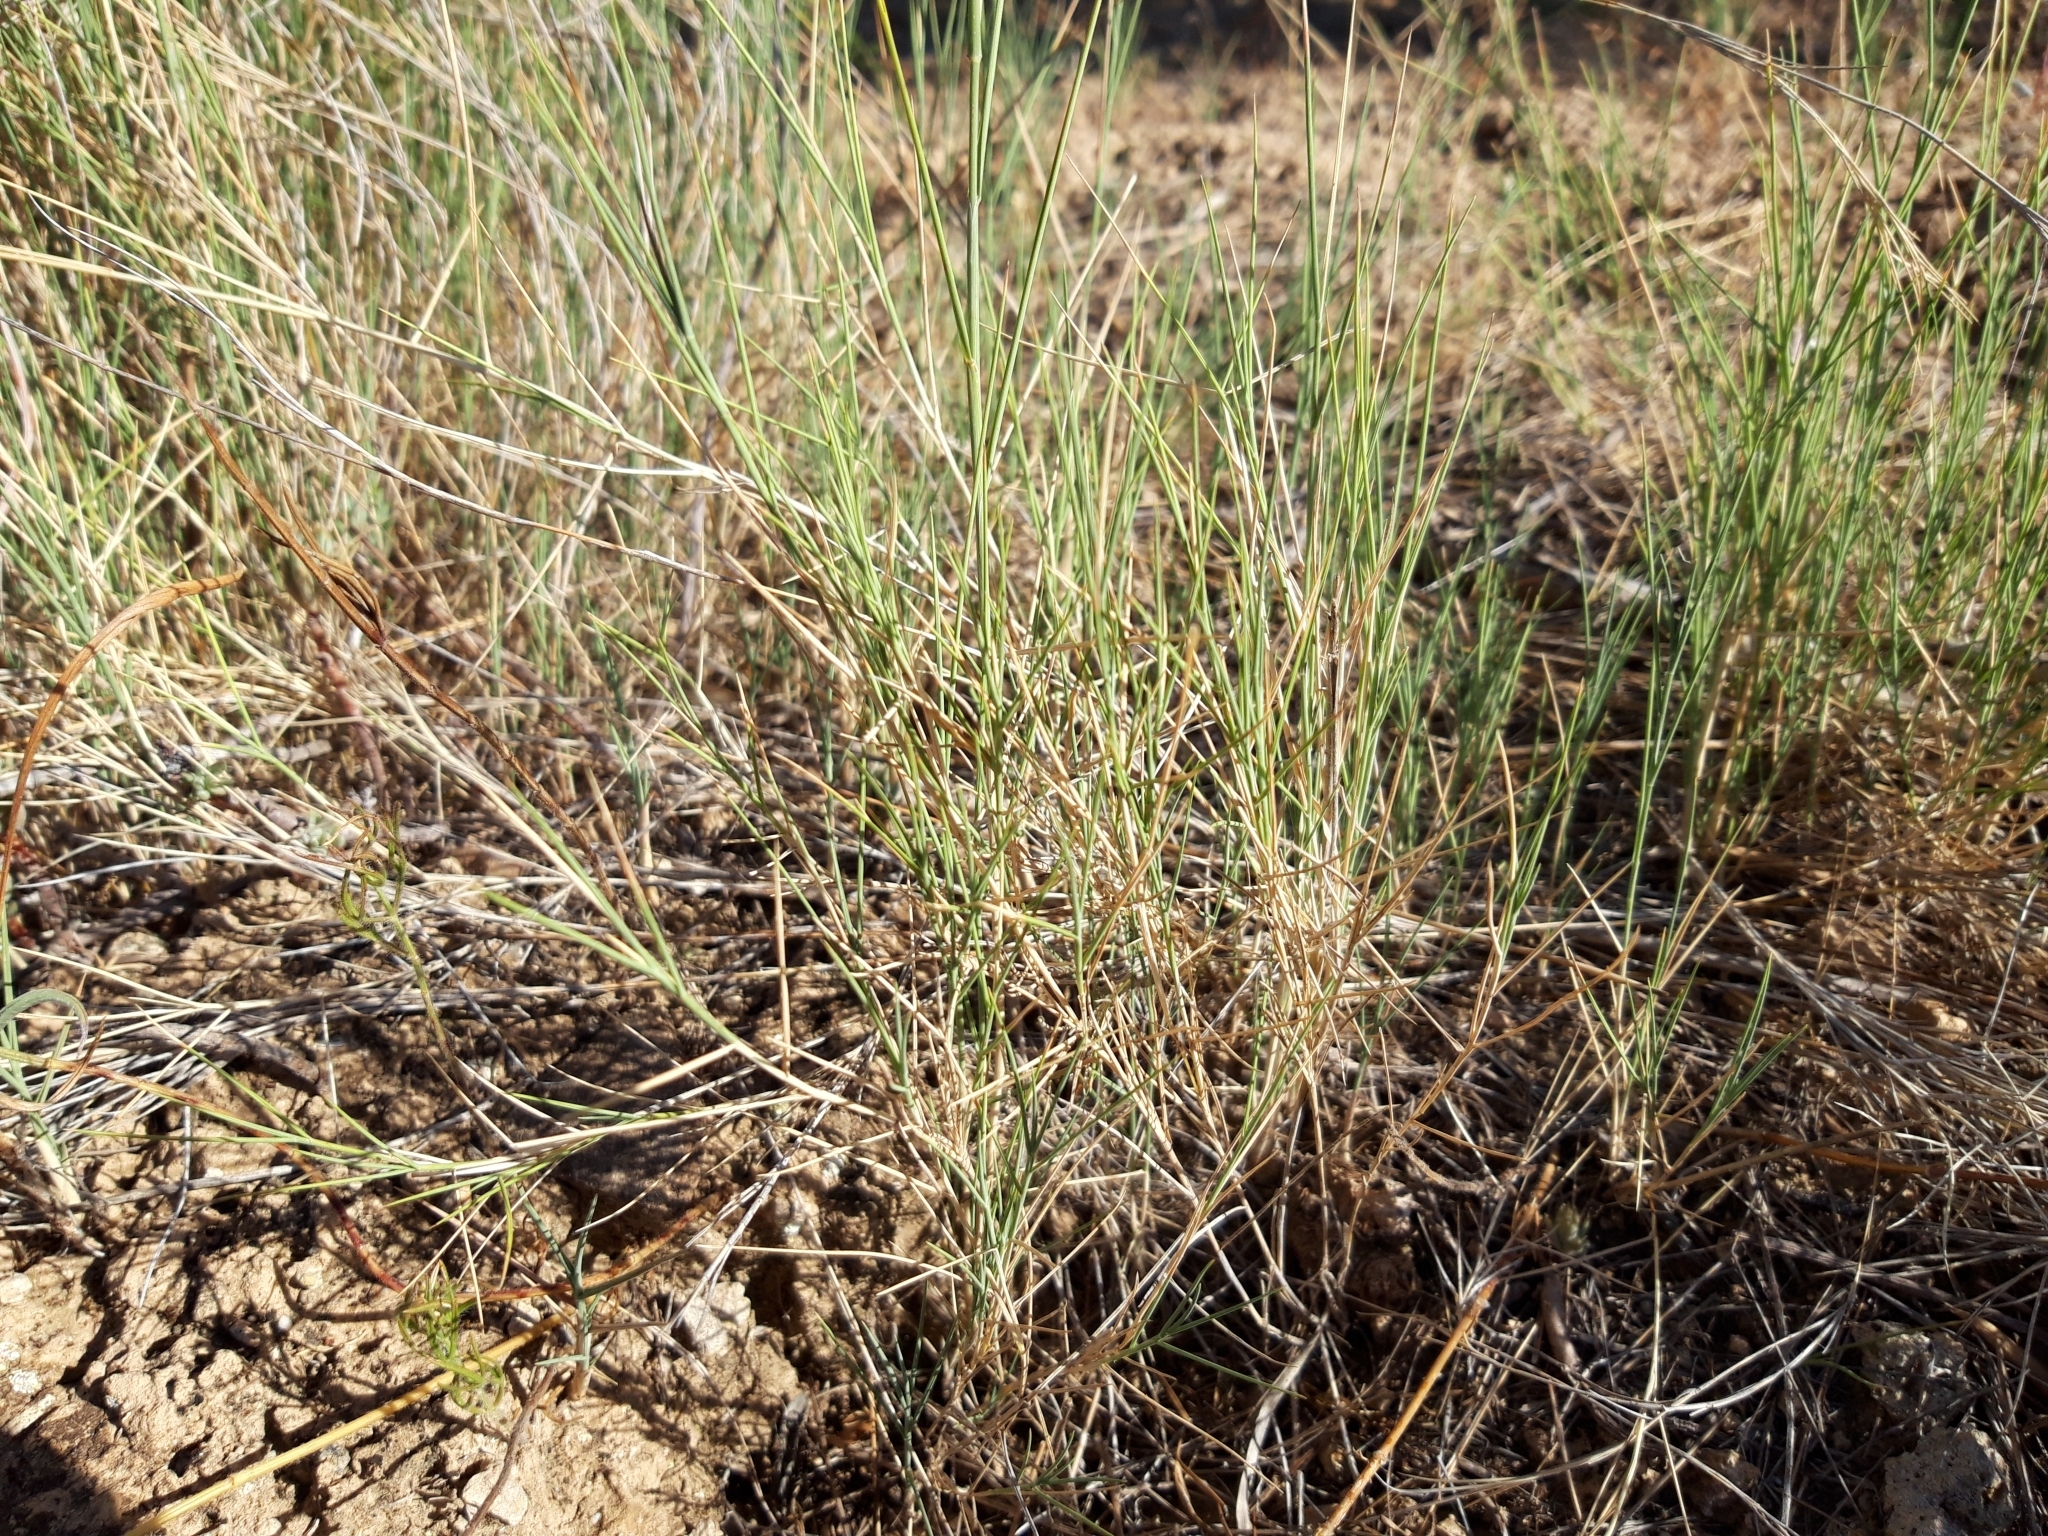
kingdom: Plantae
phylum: Tracheophyta
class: Liliopsida
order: Poales
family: Poaceae
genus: Brachypodium
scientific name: Brachypodium retusum
